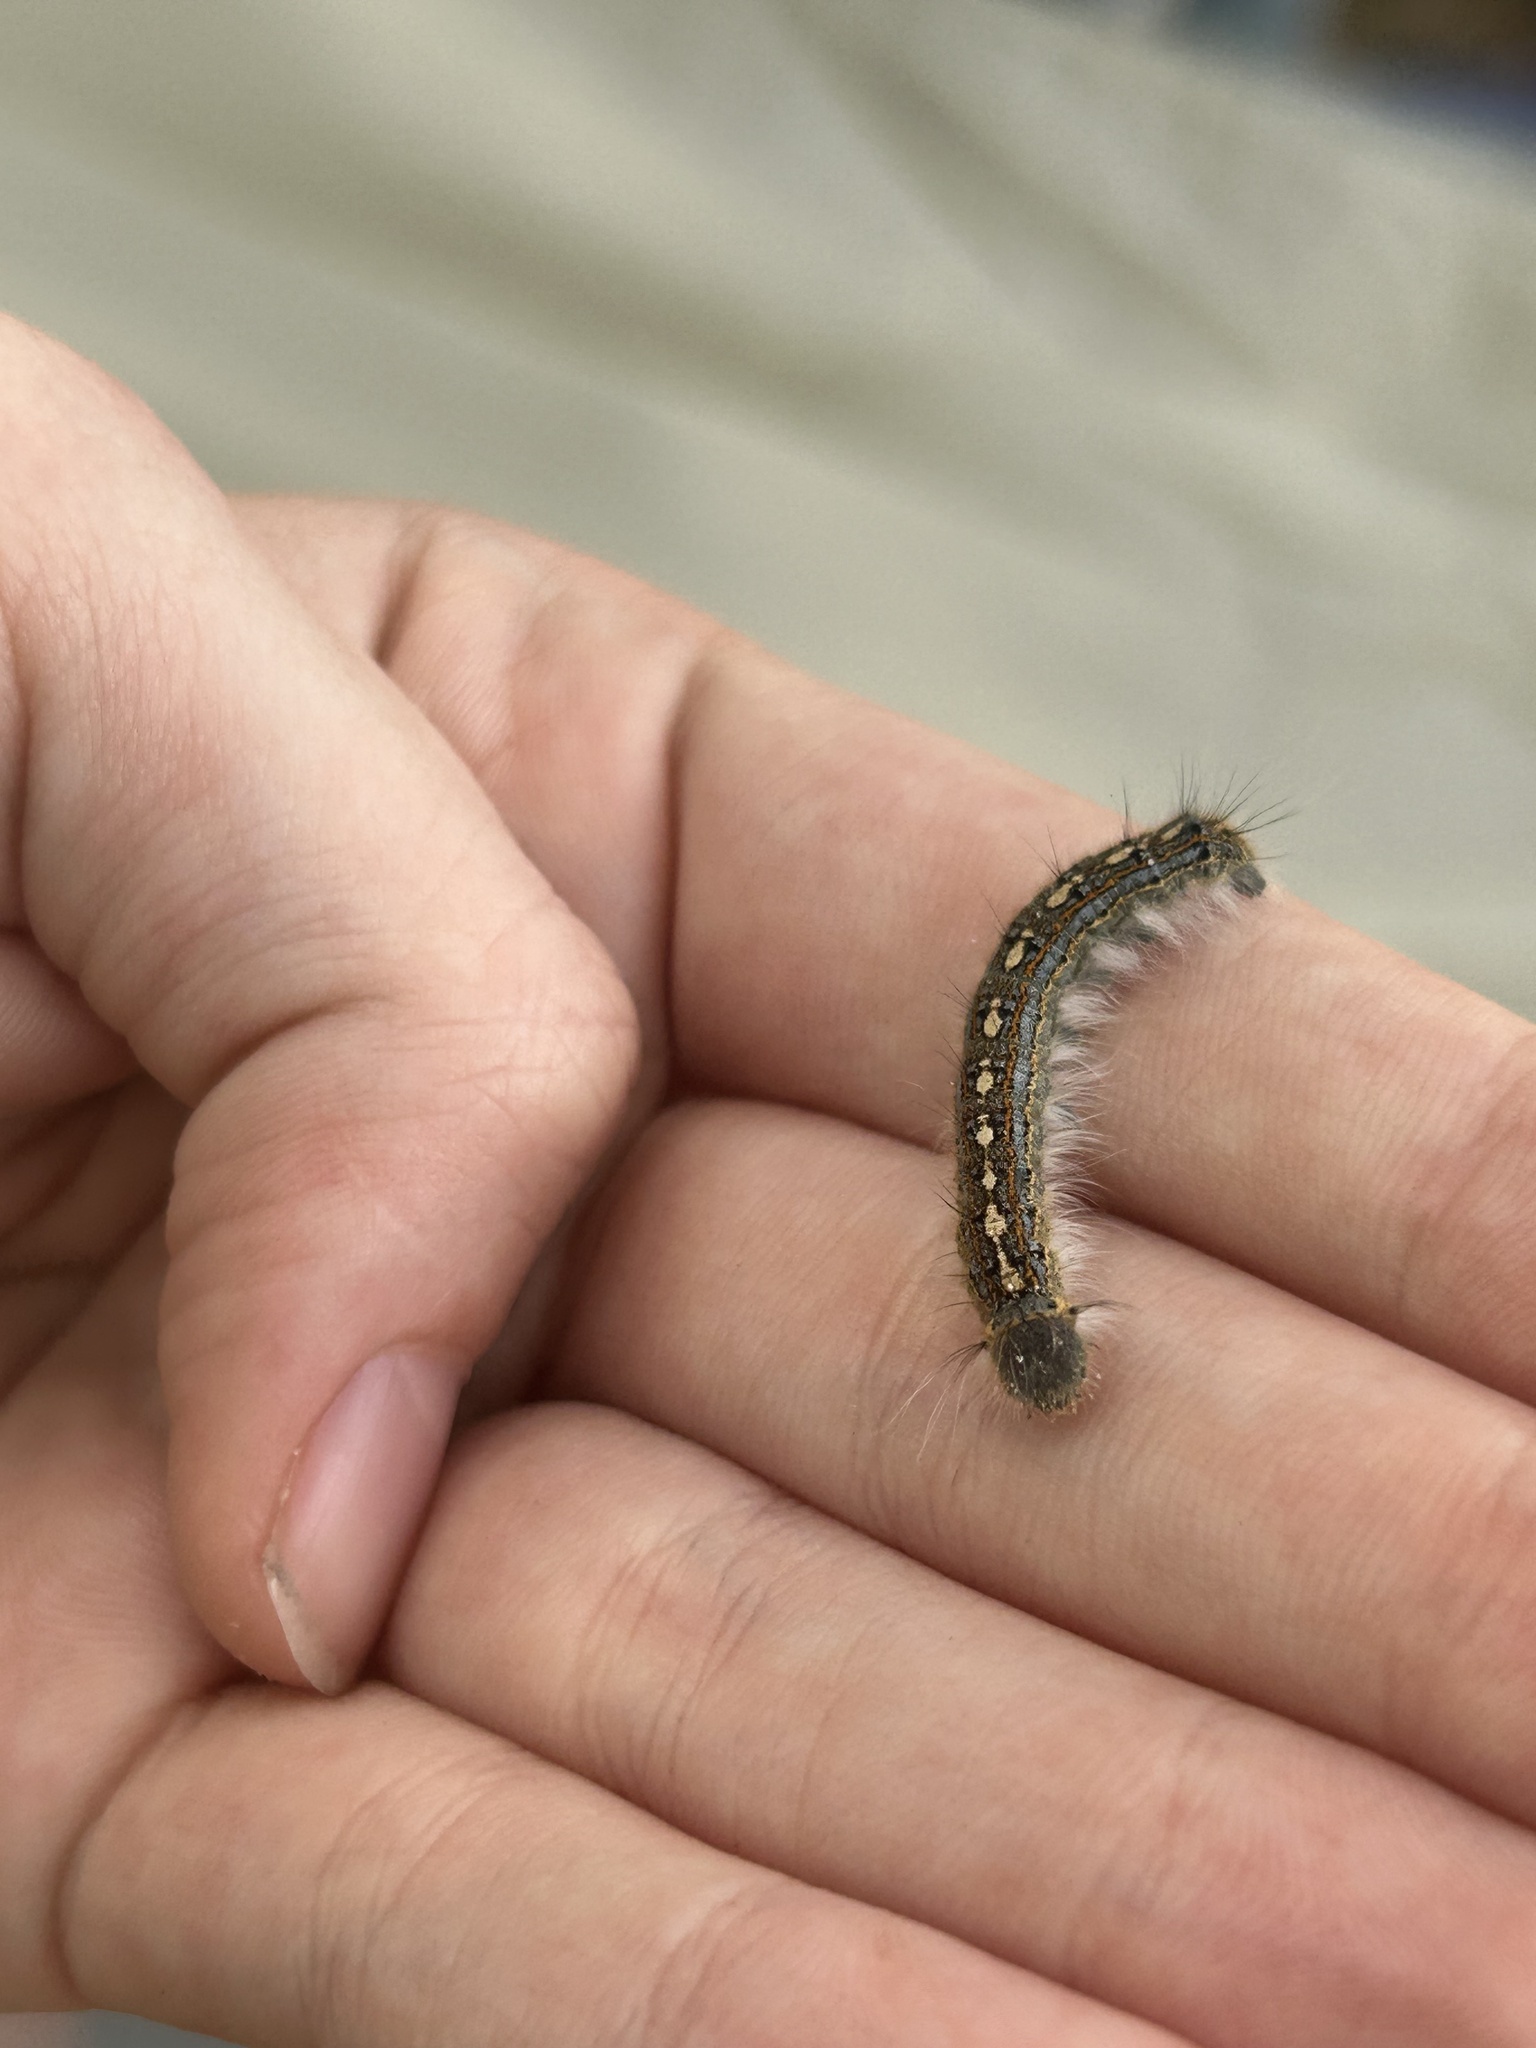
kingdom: Animalia
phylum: Arthropoda
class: Insecta
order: Lepidoptera
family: Lasiocampidae
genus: Malacosoma
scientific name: Malacosoma disstria
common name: Forest tent caterpillar
